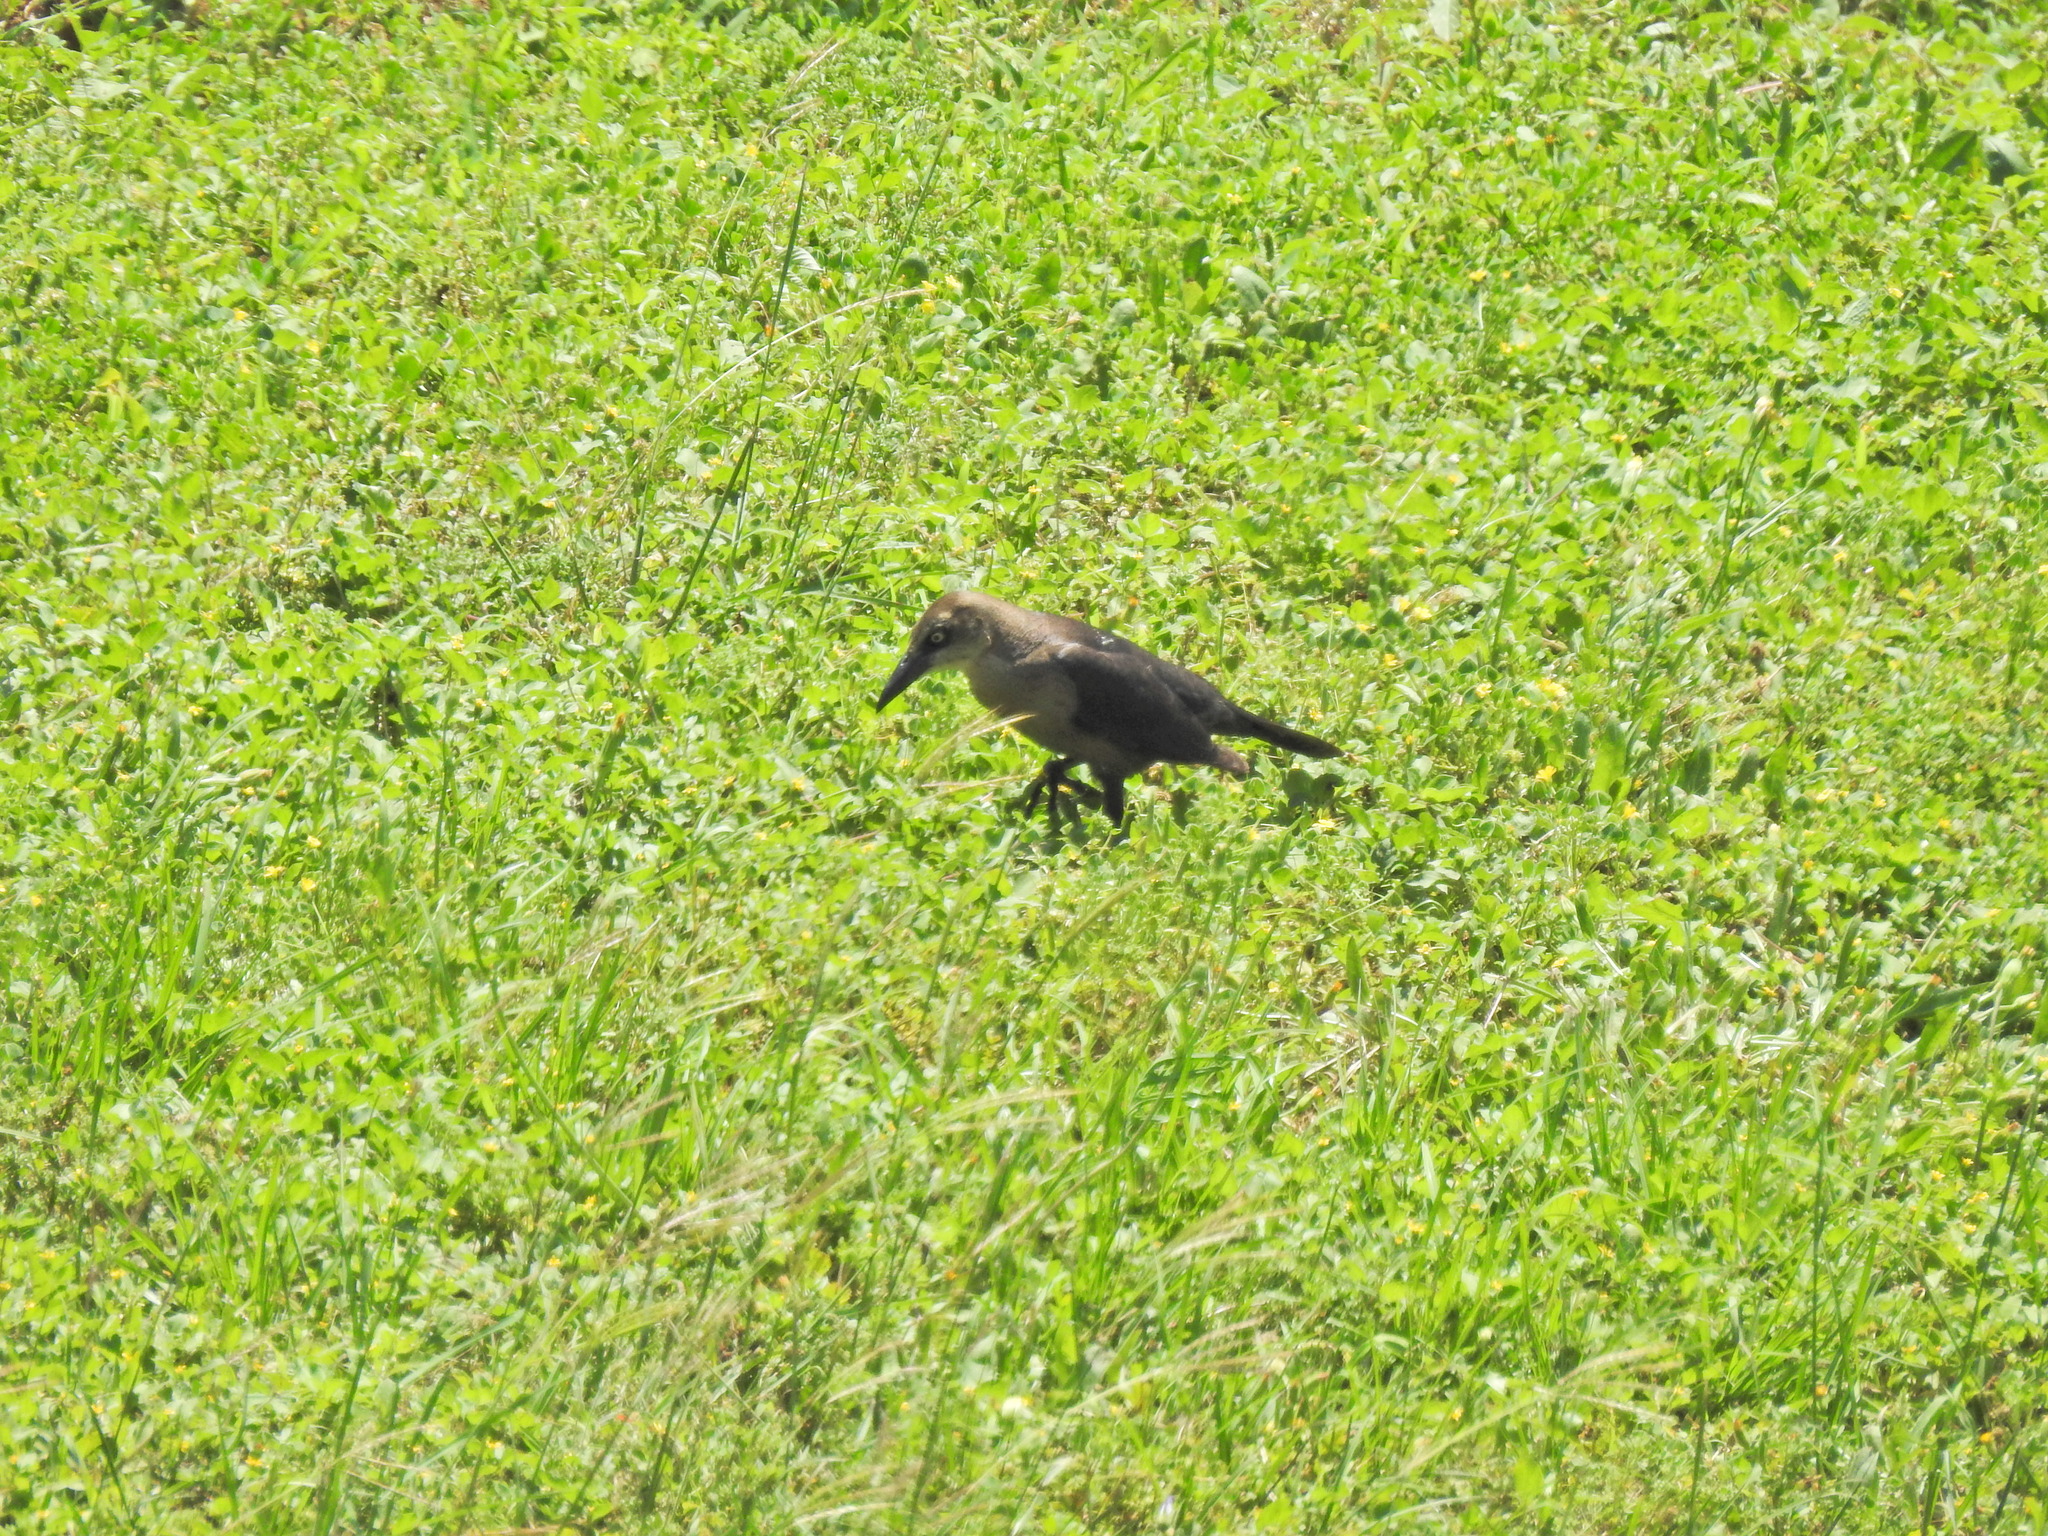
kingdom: Animalia
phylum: Chordata
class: Aves
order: Passeriformes
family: Icteridae
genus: Quiscalus
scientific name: Quiscalus mexicanus
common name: Great-tailed grackle
